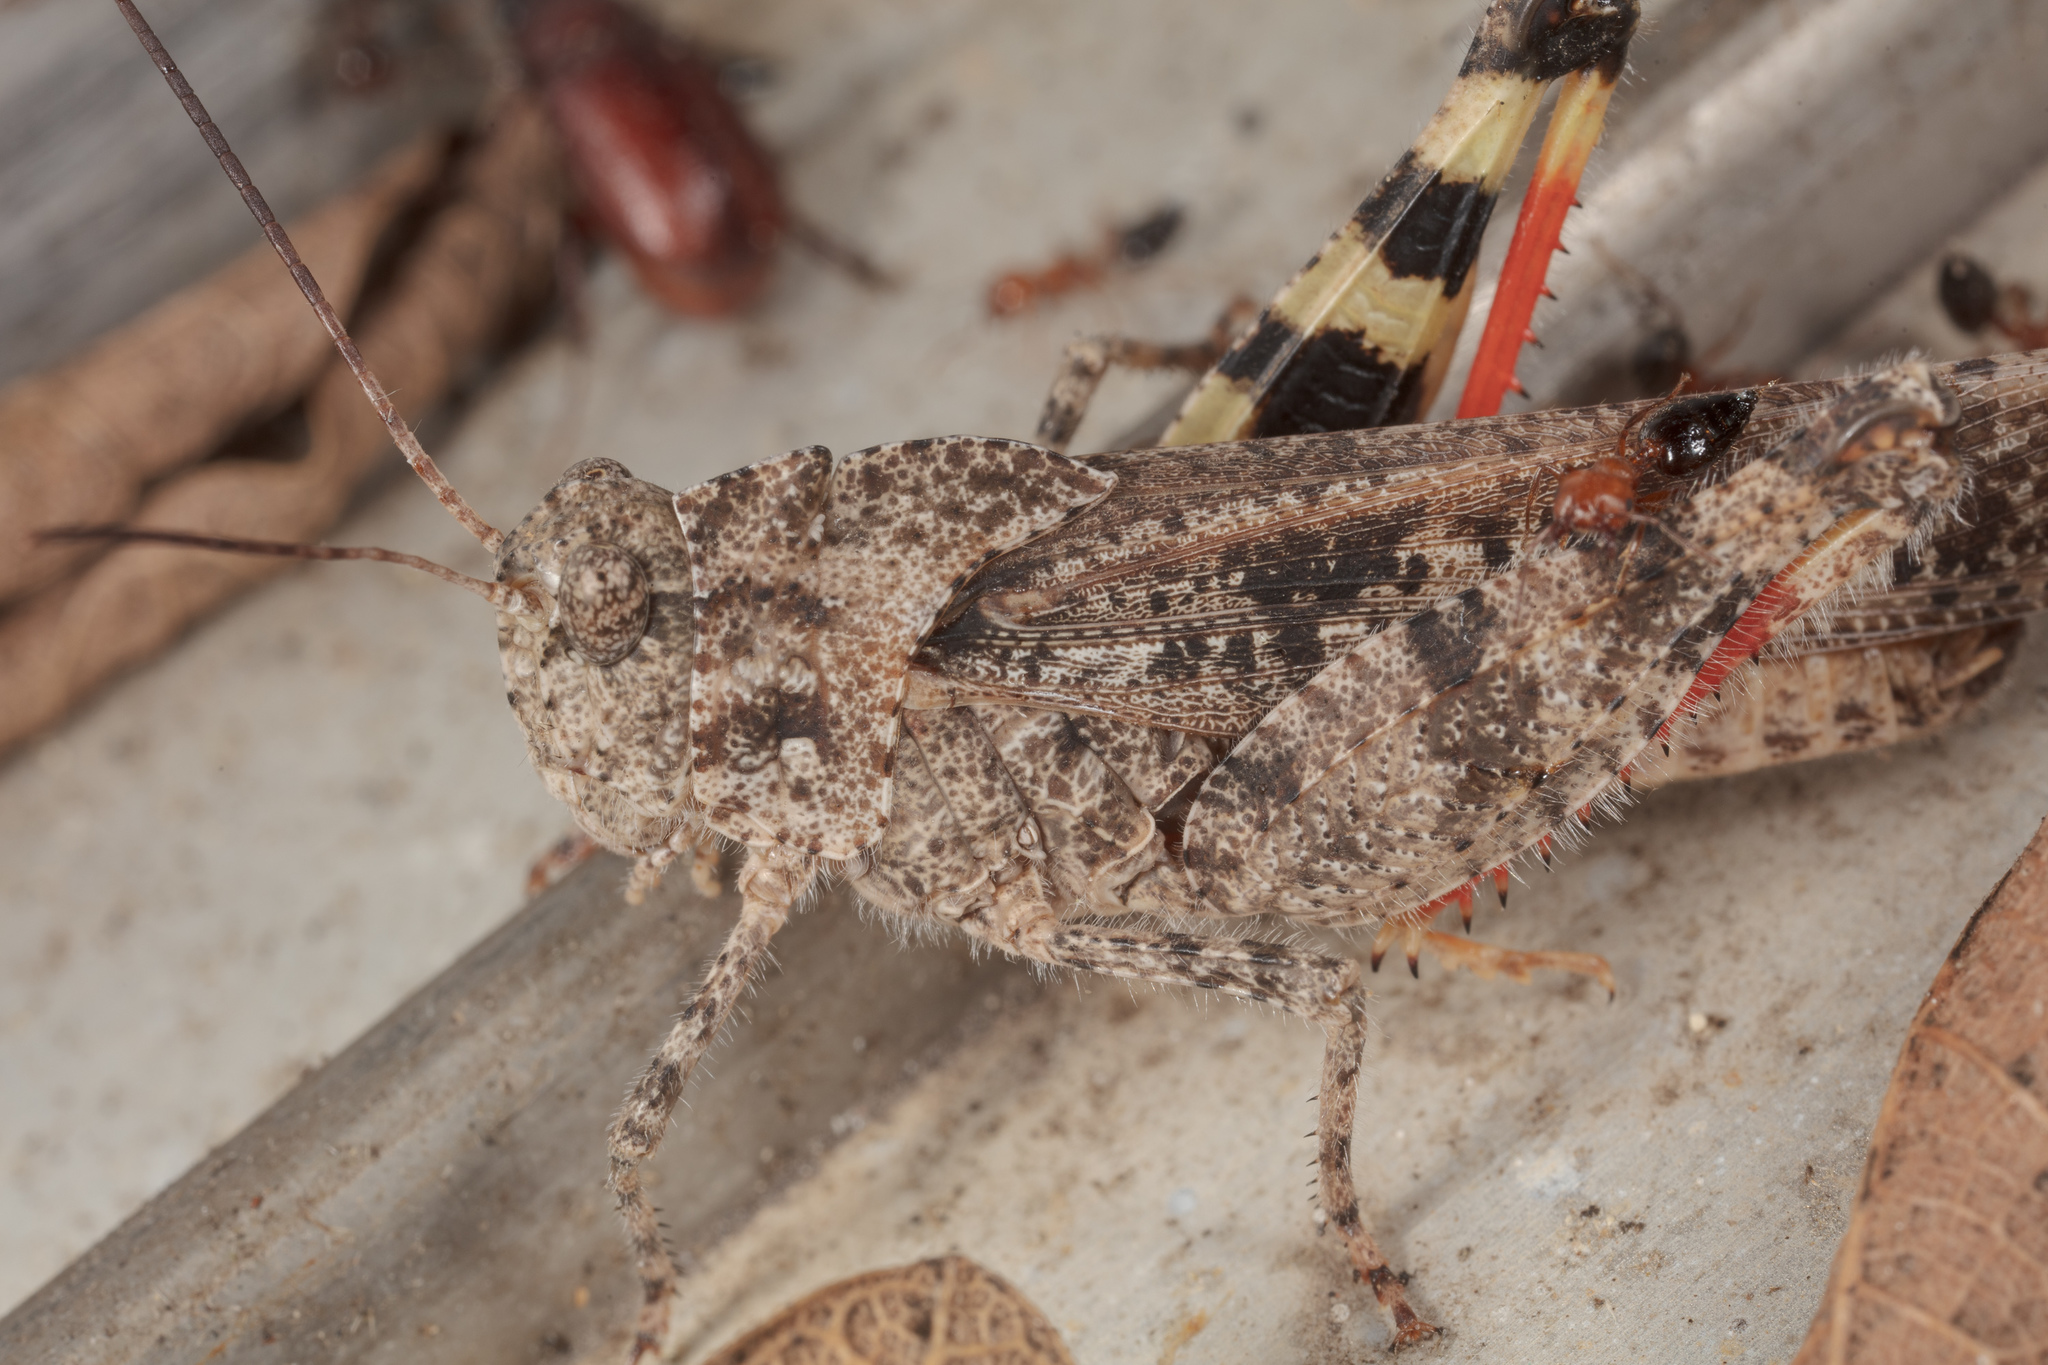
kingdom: Animalia
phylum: Arthropoda
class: Insecta
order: Orthoptera
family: Acrididae
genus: Spharagemon
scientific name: Spharagemon cristatum
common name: Ridgeback sand grasshopper
